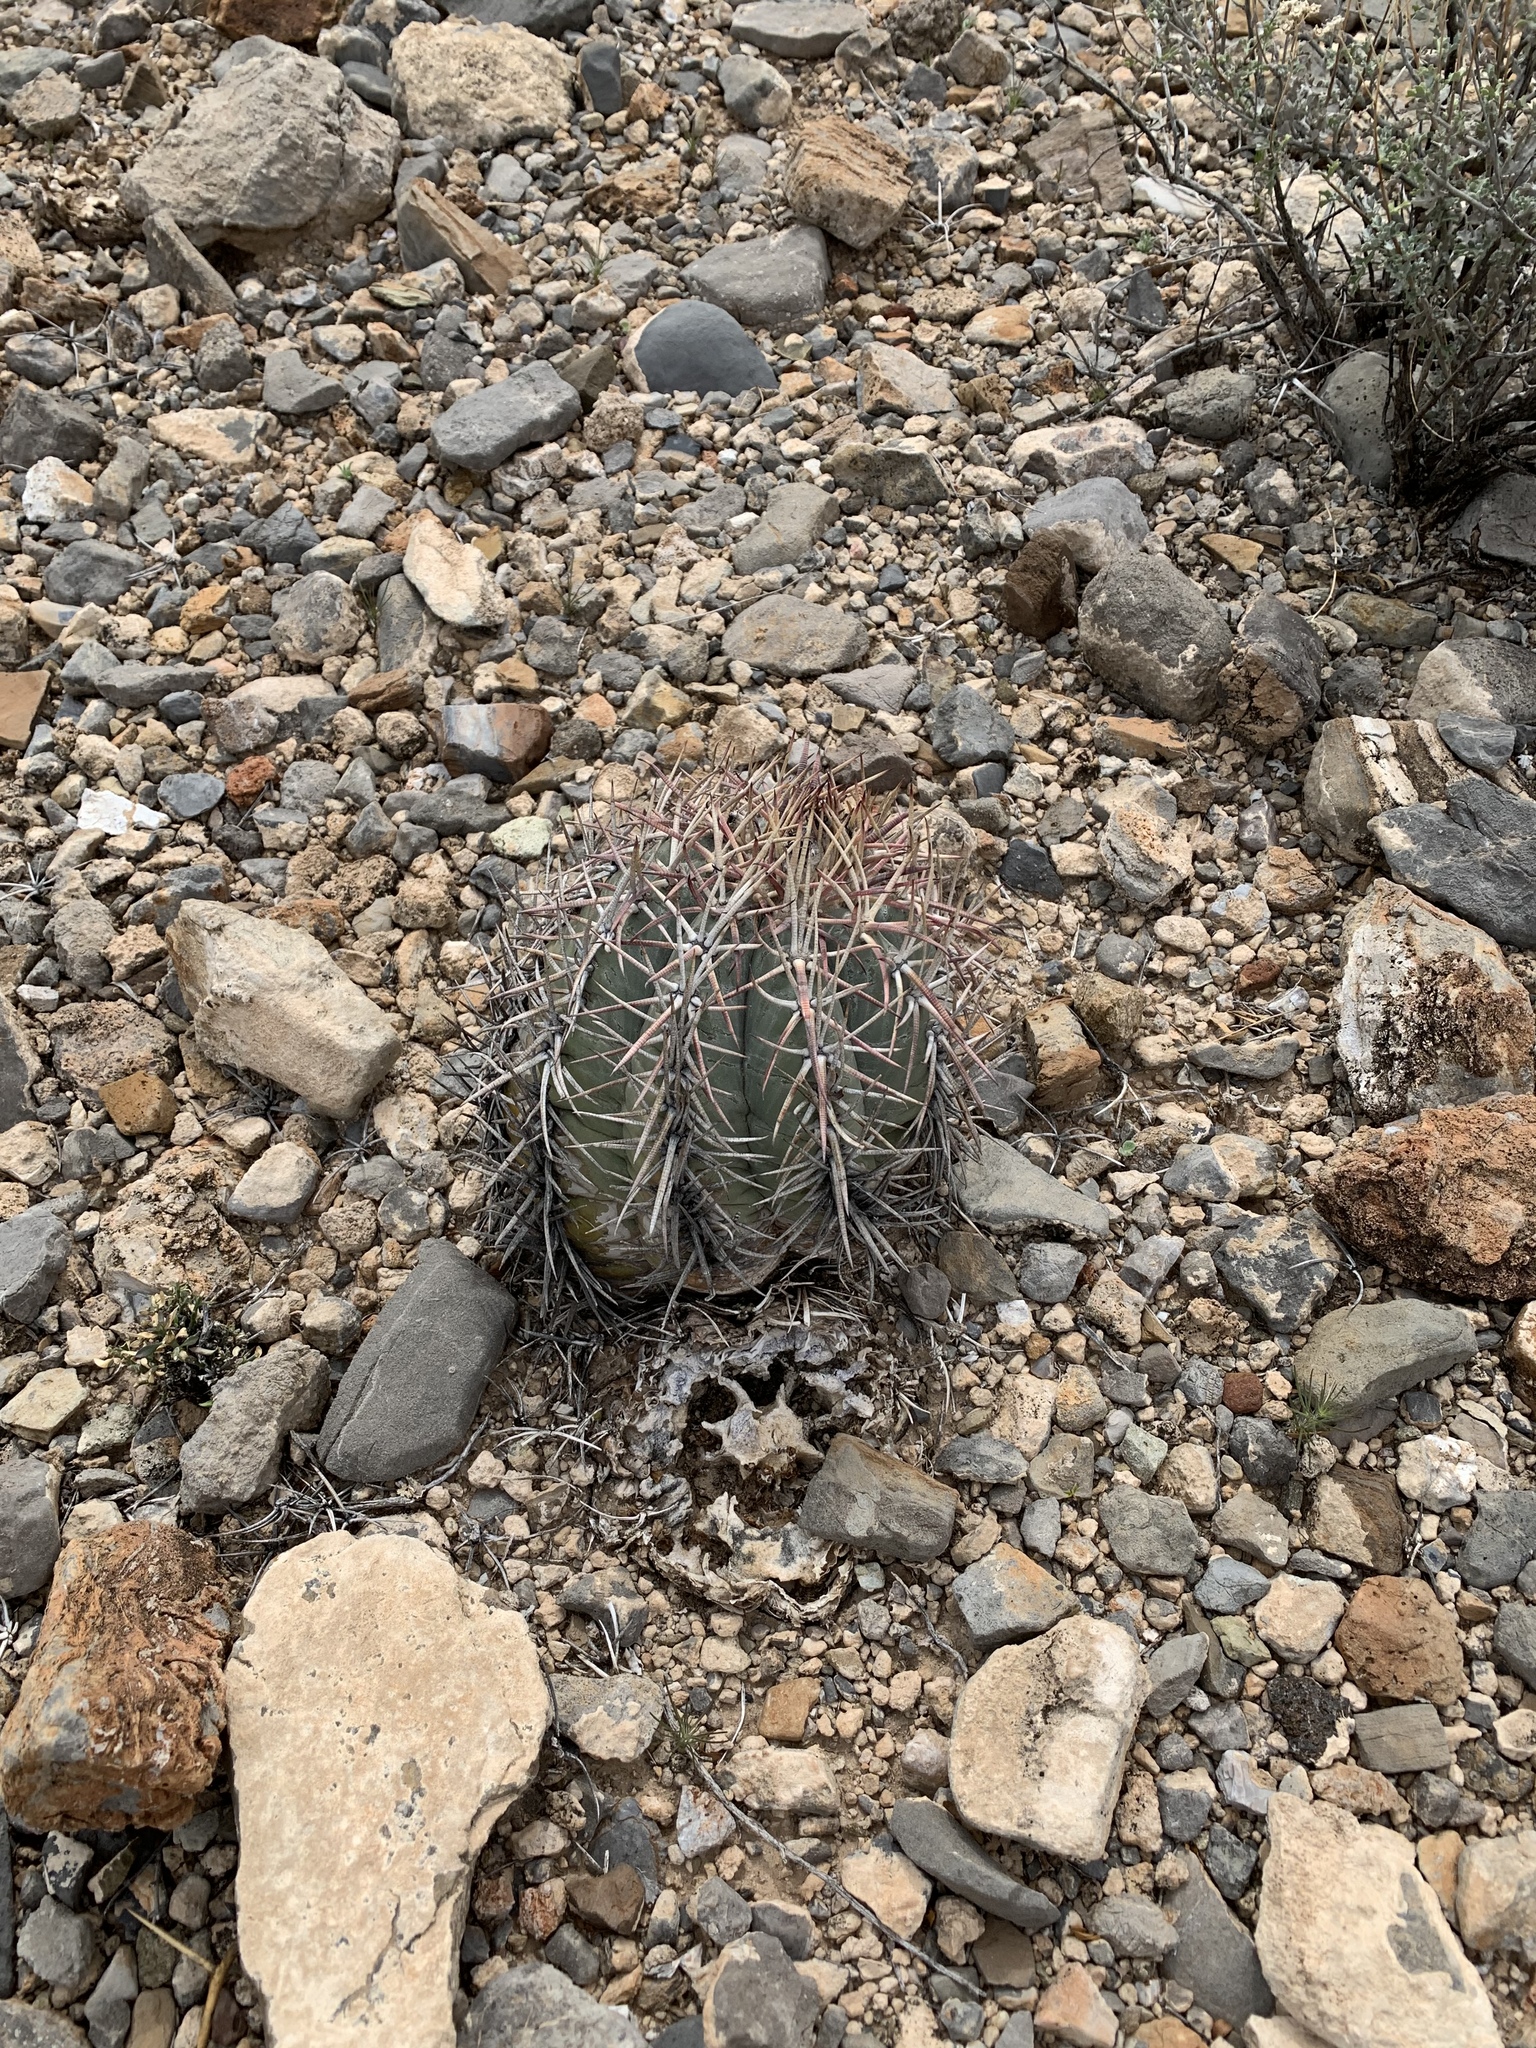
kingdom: Plantae
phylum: Tracheophyta
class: Magnoliopsida
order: Caryophyllales
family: Cactaceae
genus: Echinocactus
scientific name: Echinocactus horizonthalonius
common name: Devilshead
